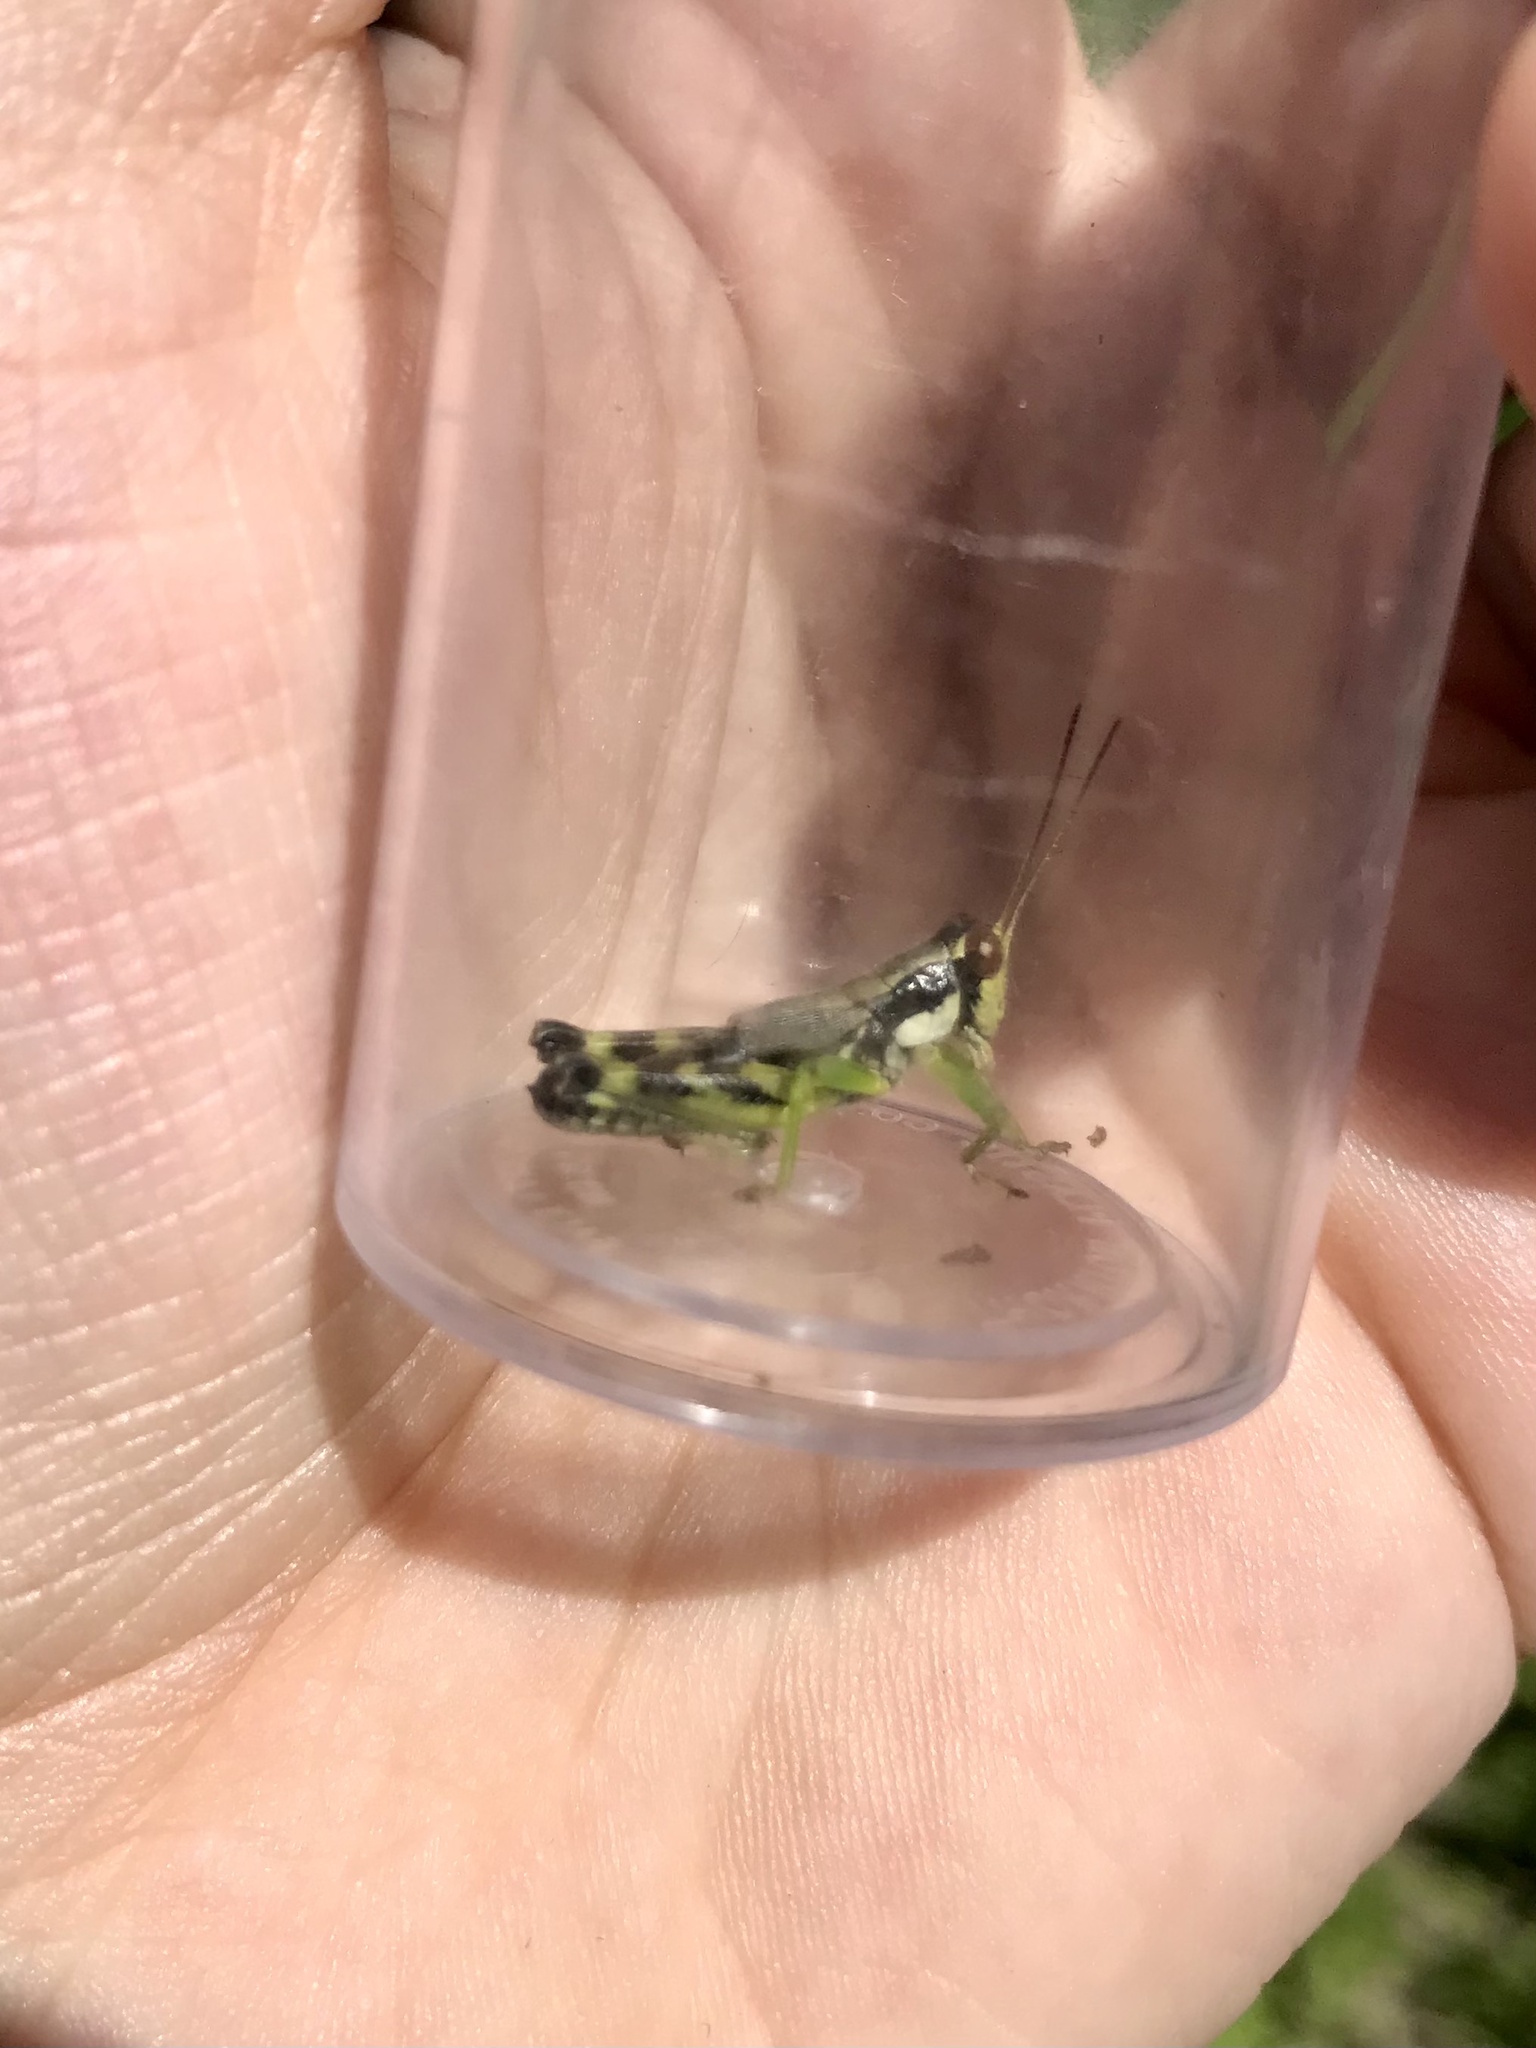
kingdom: Animalia
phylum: Arthropoda
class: Insecta
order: Orthoptera
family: Acrididae
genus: Melanoplus
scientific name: Melanoplus viridipes
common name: Green-legged locust
